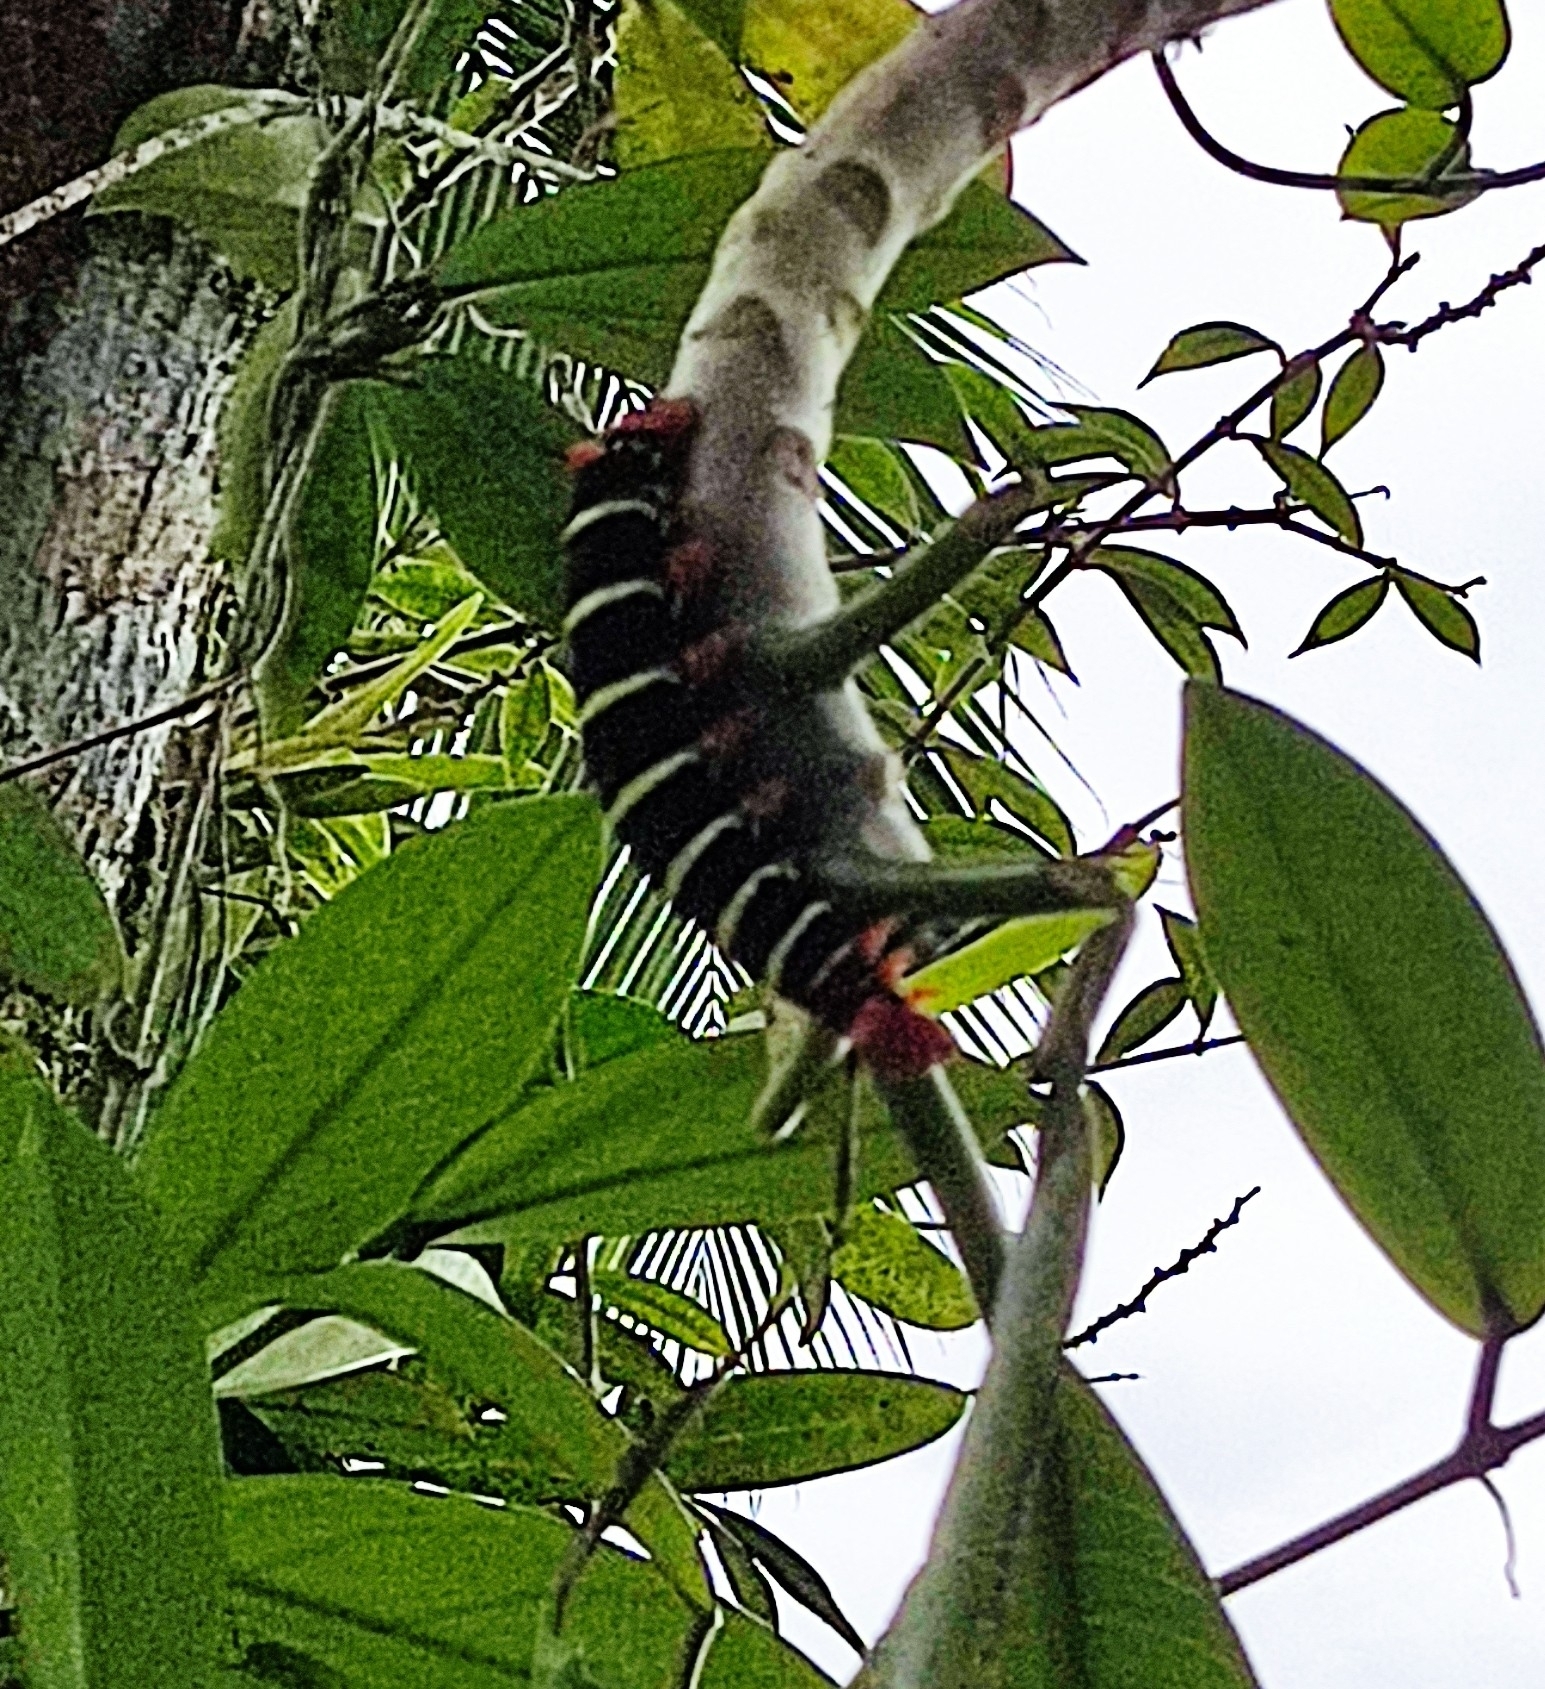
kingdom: Animalia
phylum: Arthropoda
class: Insecta
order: Lepidoptera
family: Sphingidae
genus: Pseudosphinx
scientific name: Pseudosphinx tetrio
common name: Tetrio sphinx
